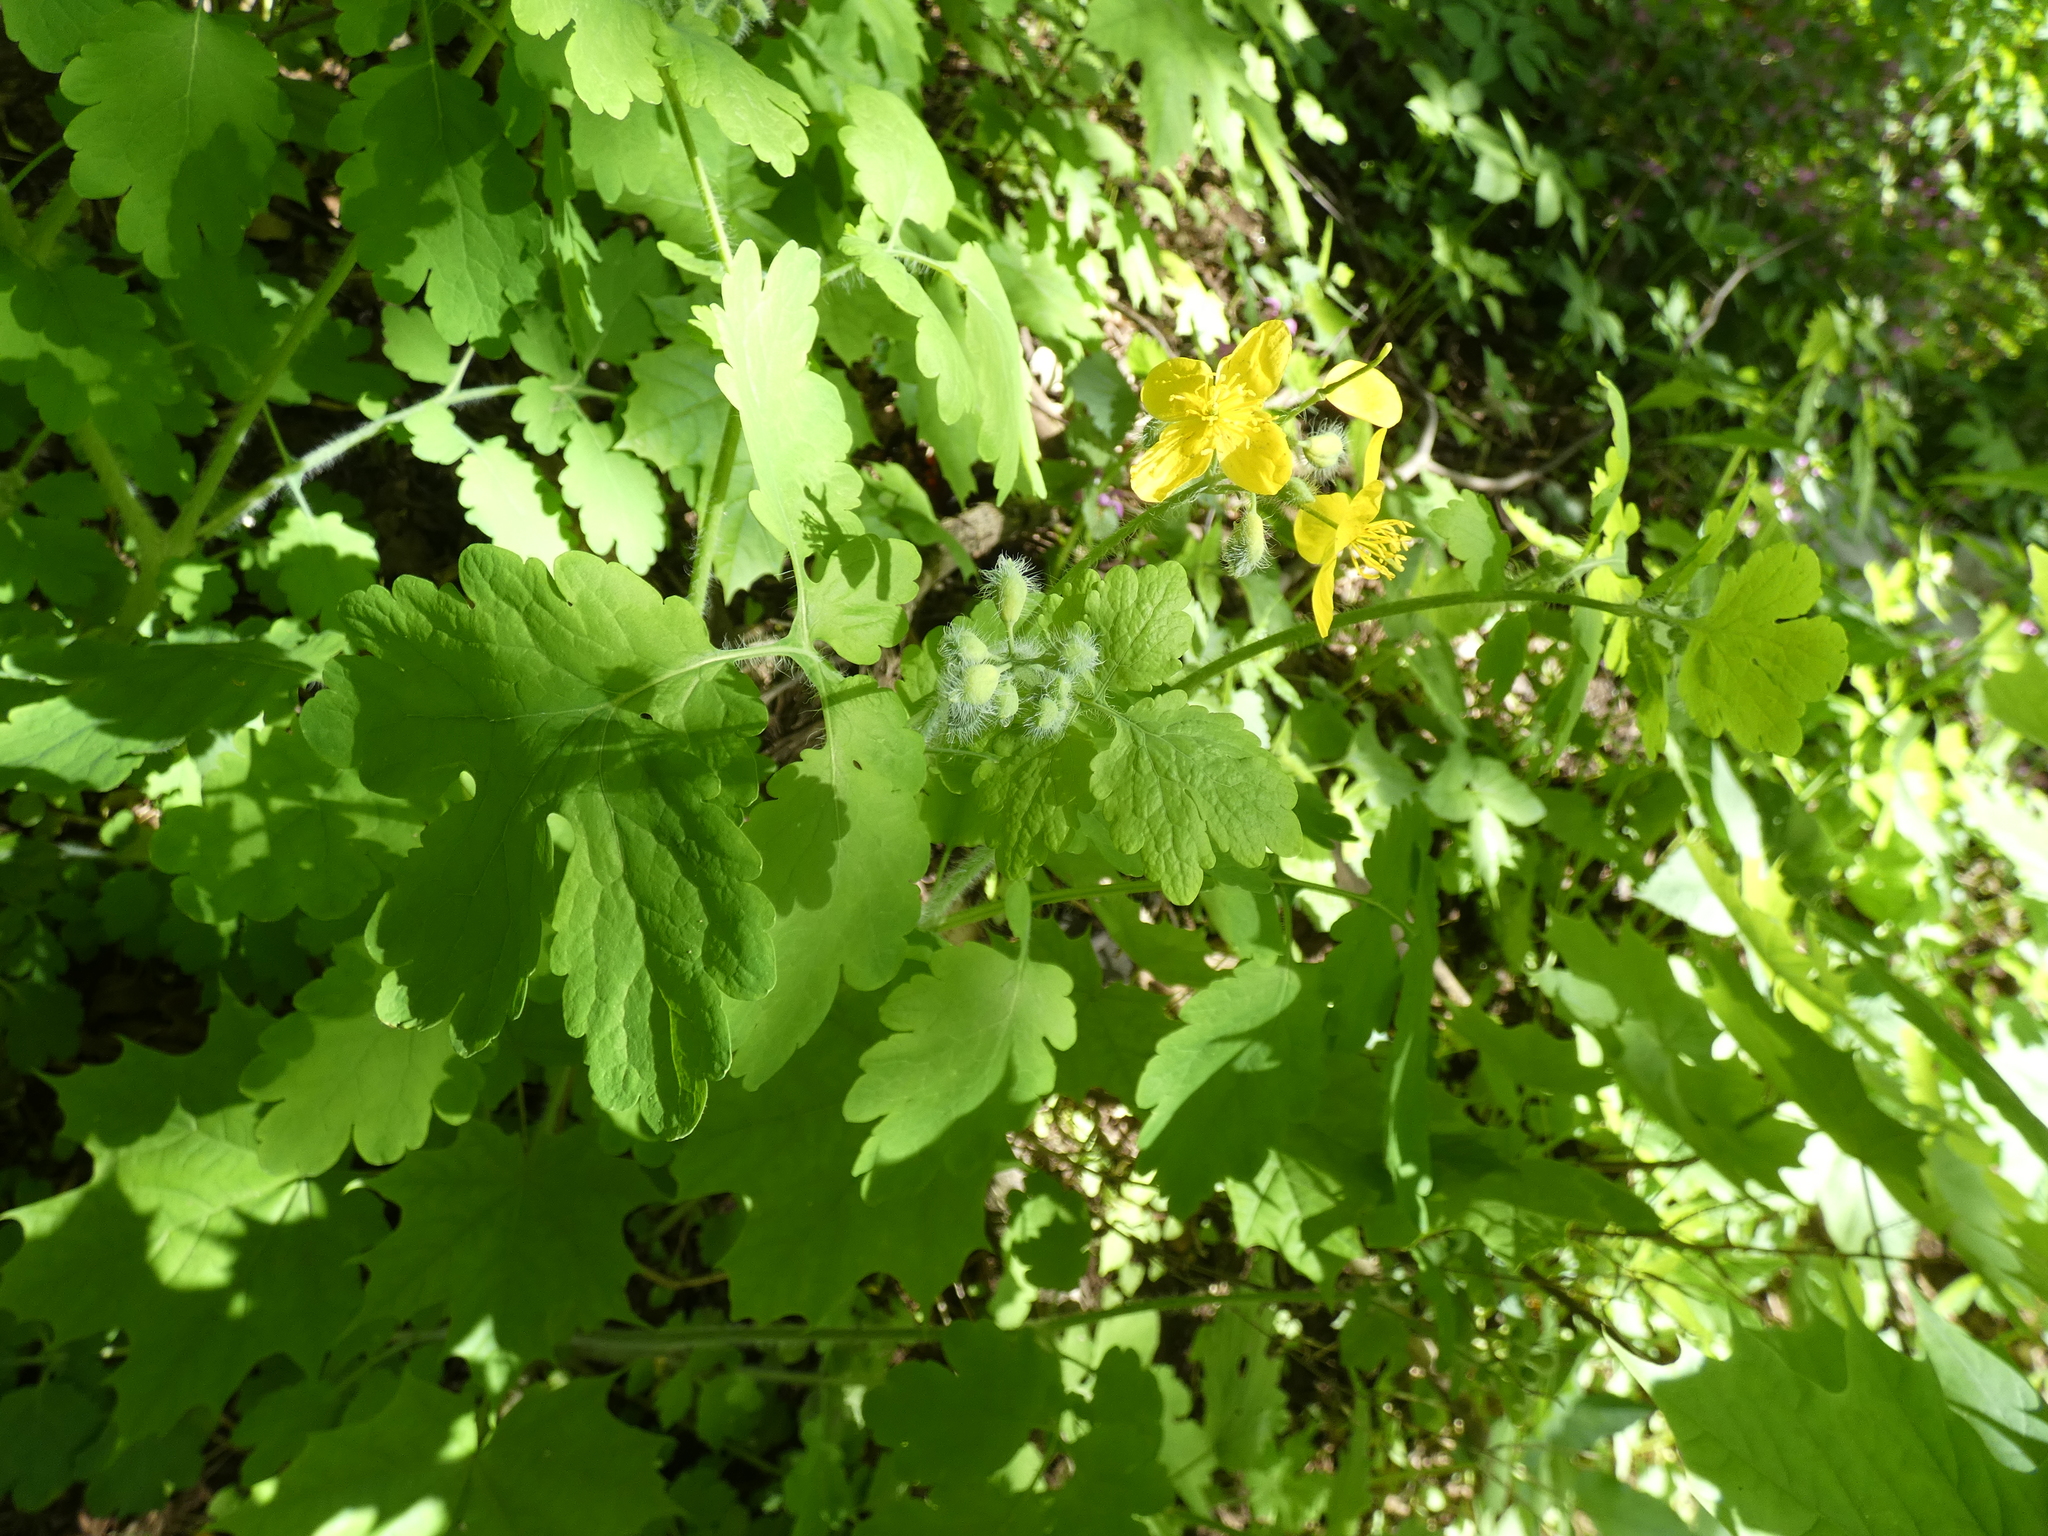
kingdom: Plantae
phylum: Tracheophyta
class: Magnoliopsida
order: Ranunculales
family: Papaveraceae
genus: Chelidonium
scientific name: Chelidonium majus
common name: Greater celandine
